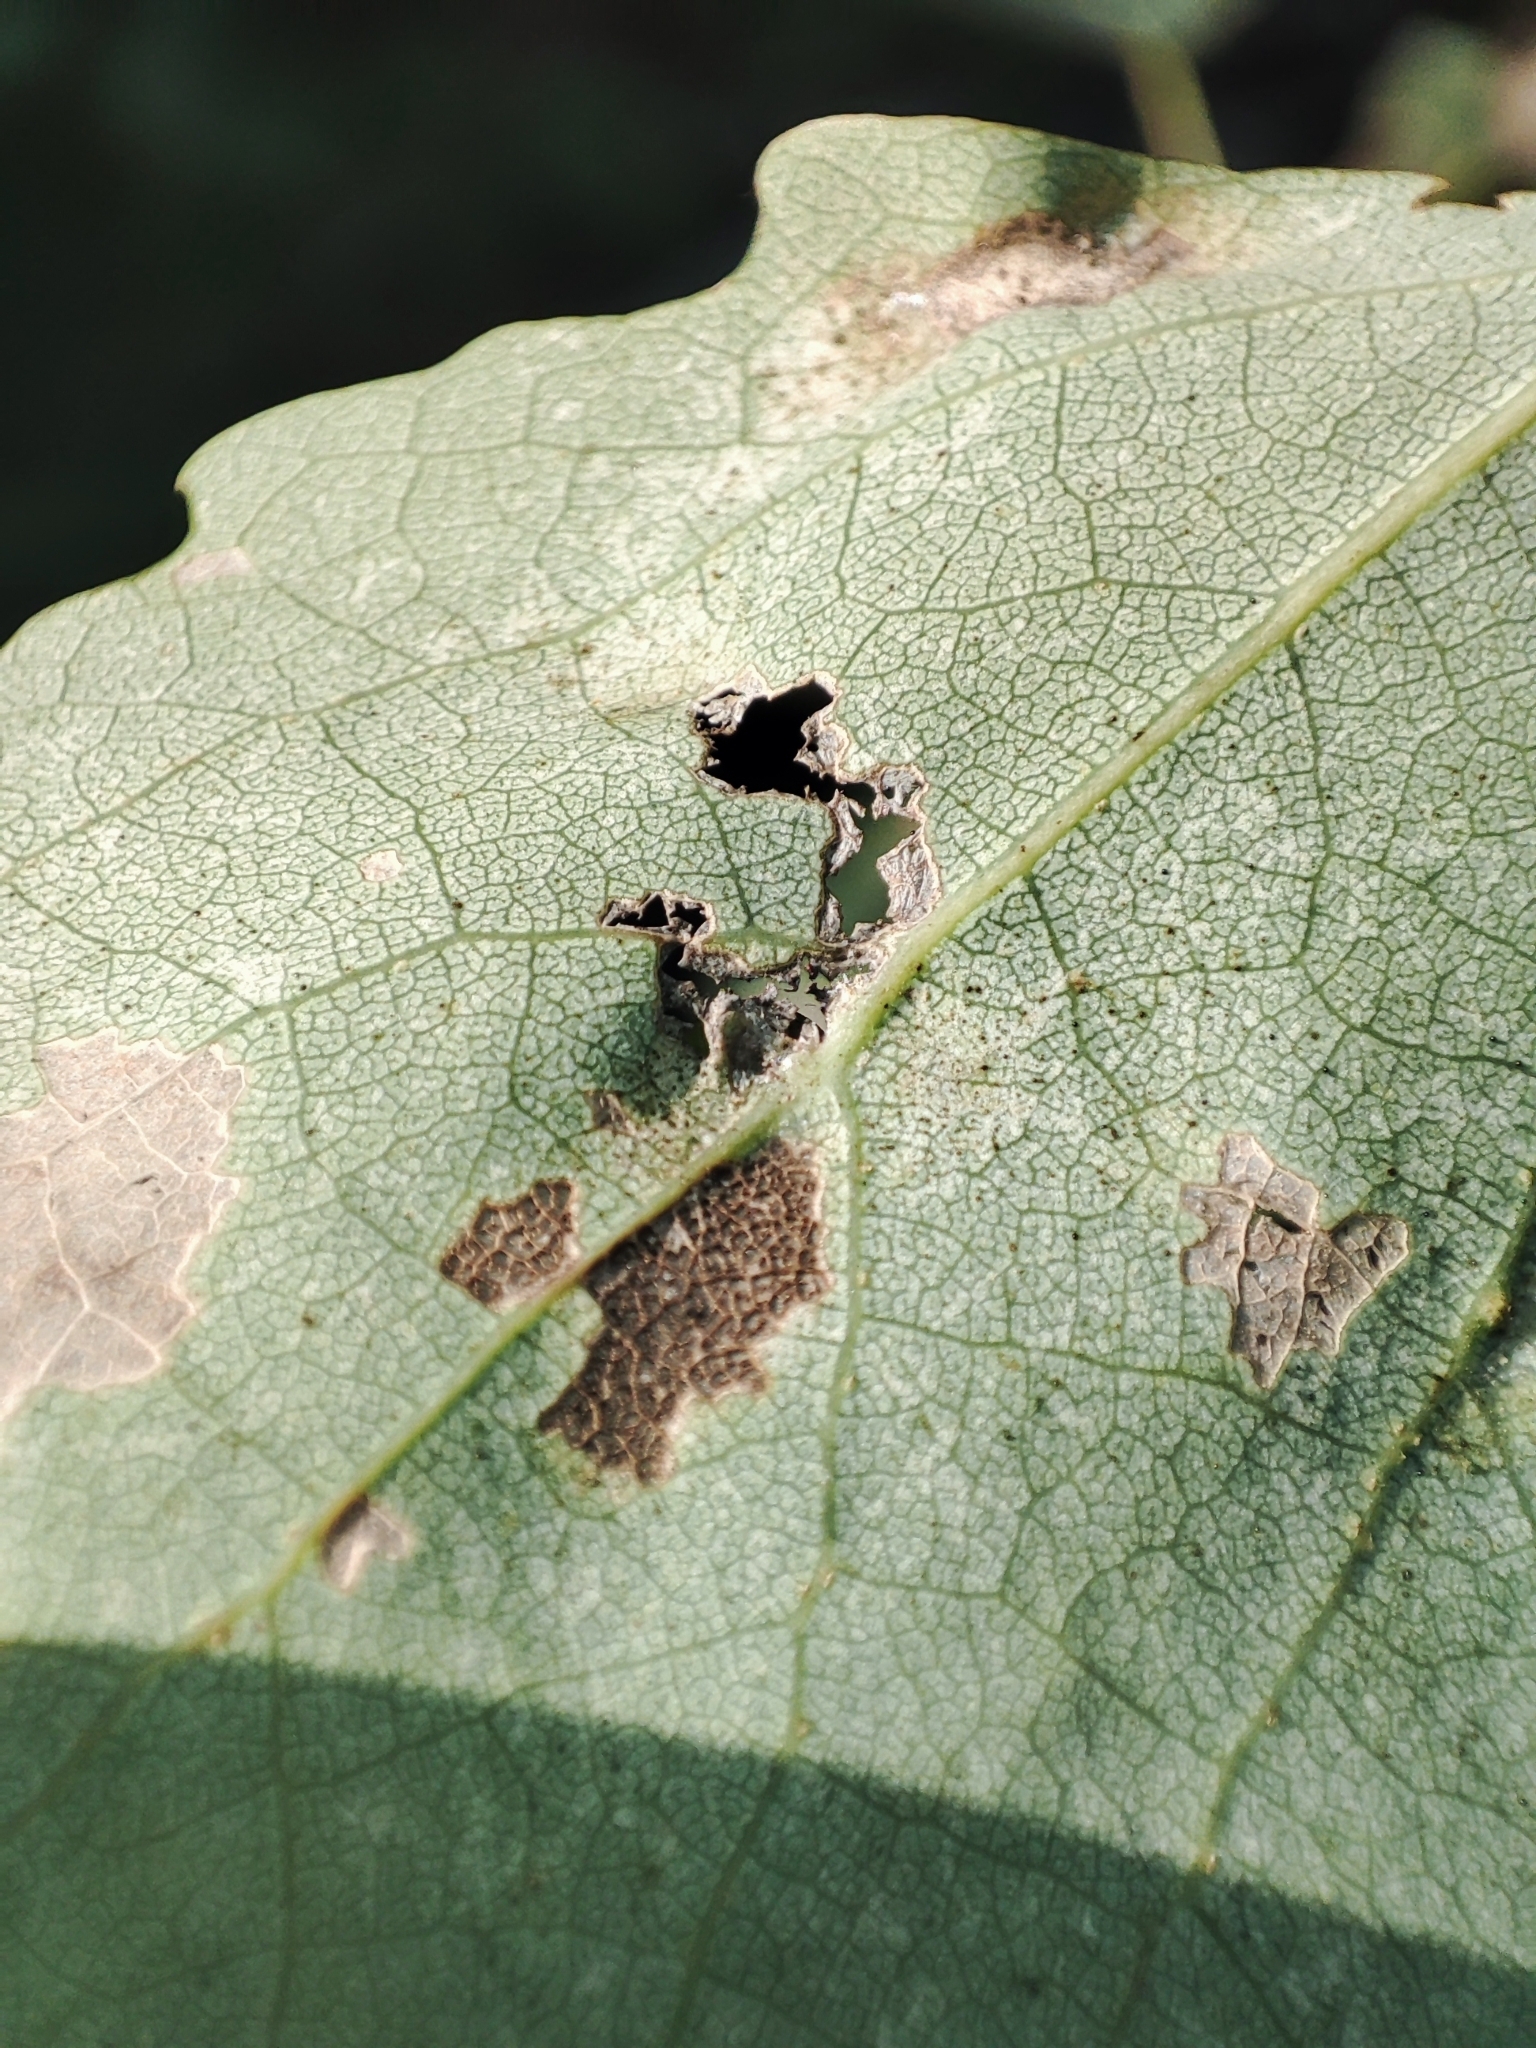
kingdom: Animalia
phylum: Arthropoda
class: Insecta
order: Diptera
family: Cecidomyiidae
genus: Harmandiola
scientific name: Harmandiola tremulae
